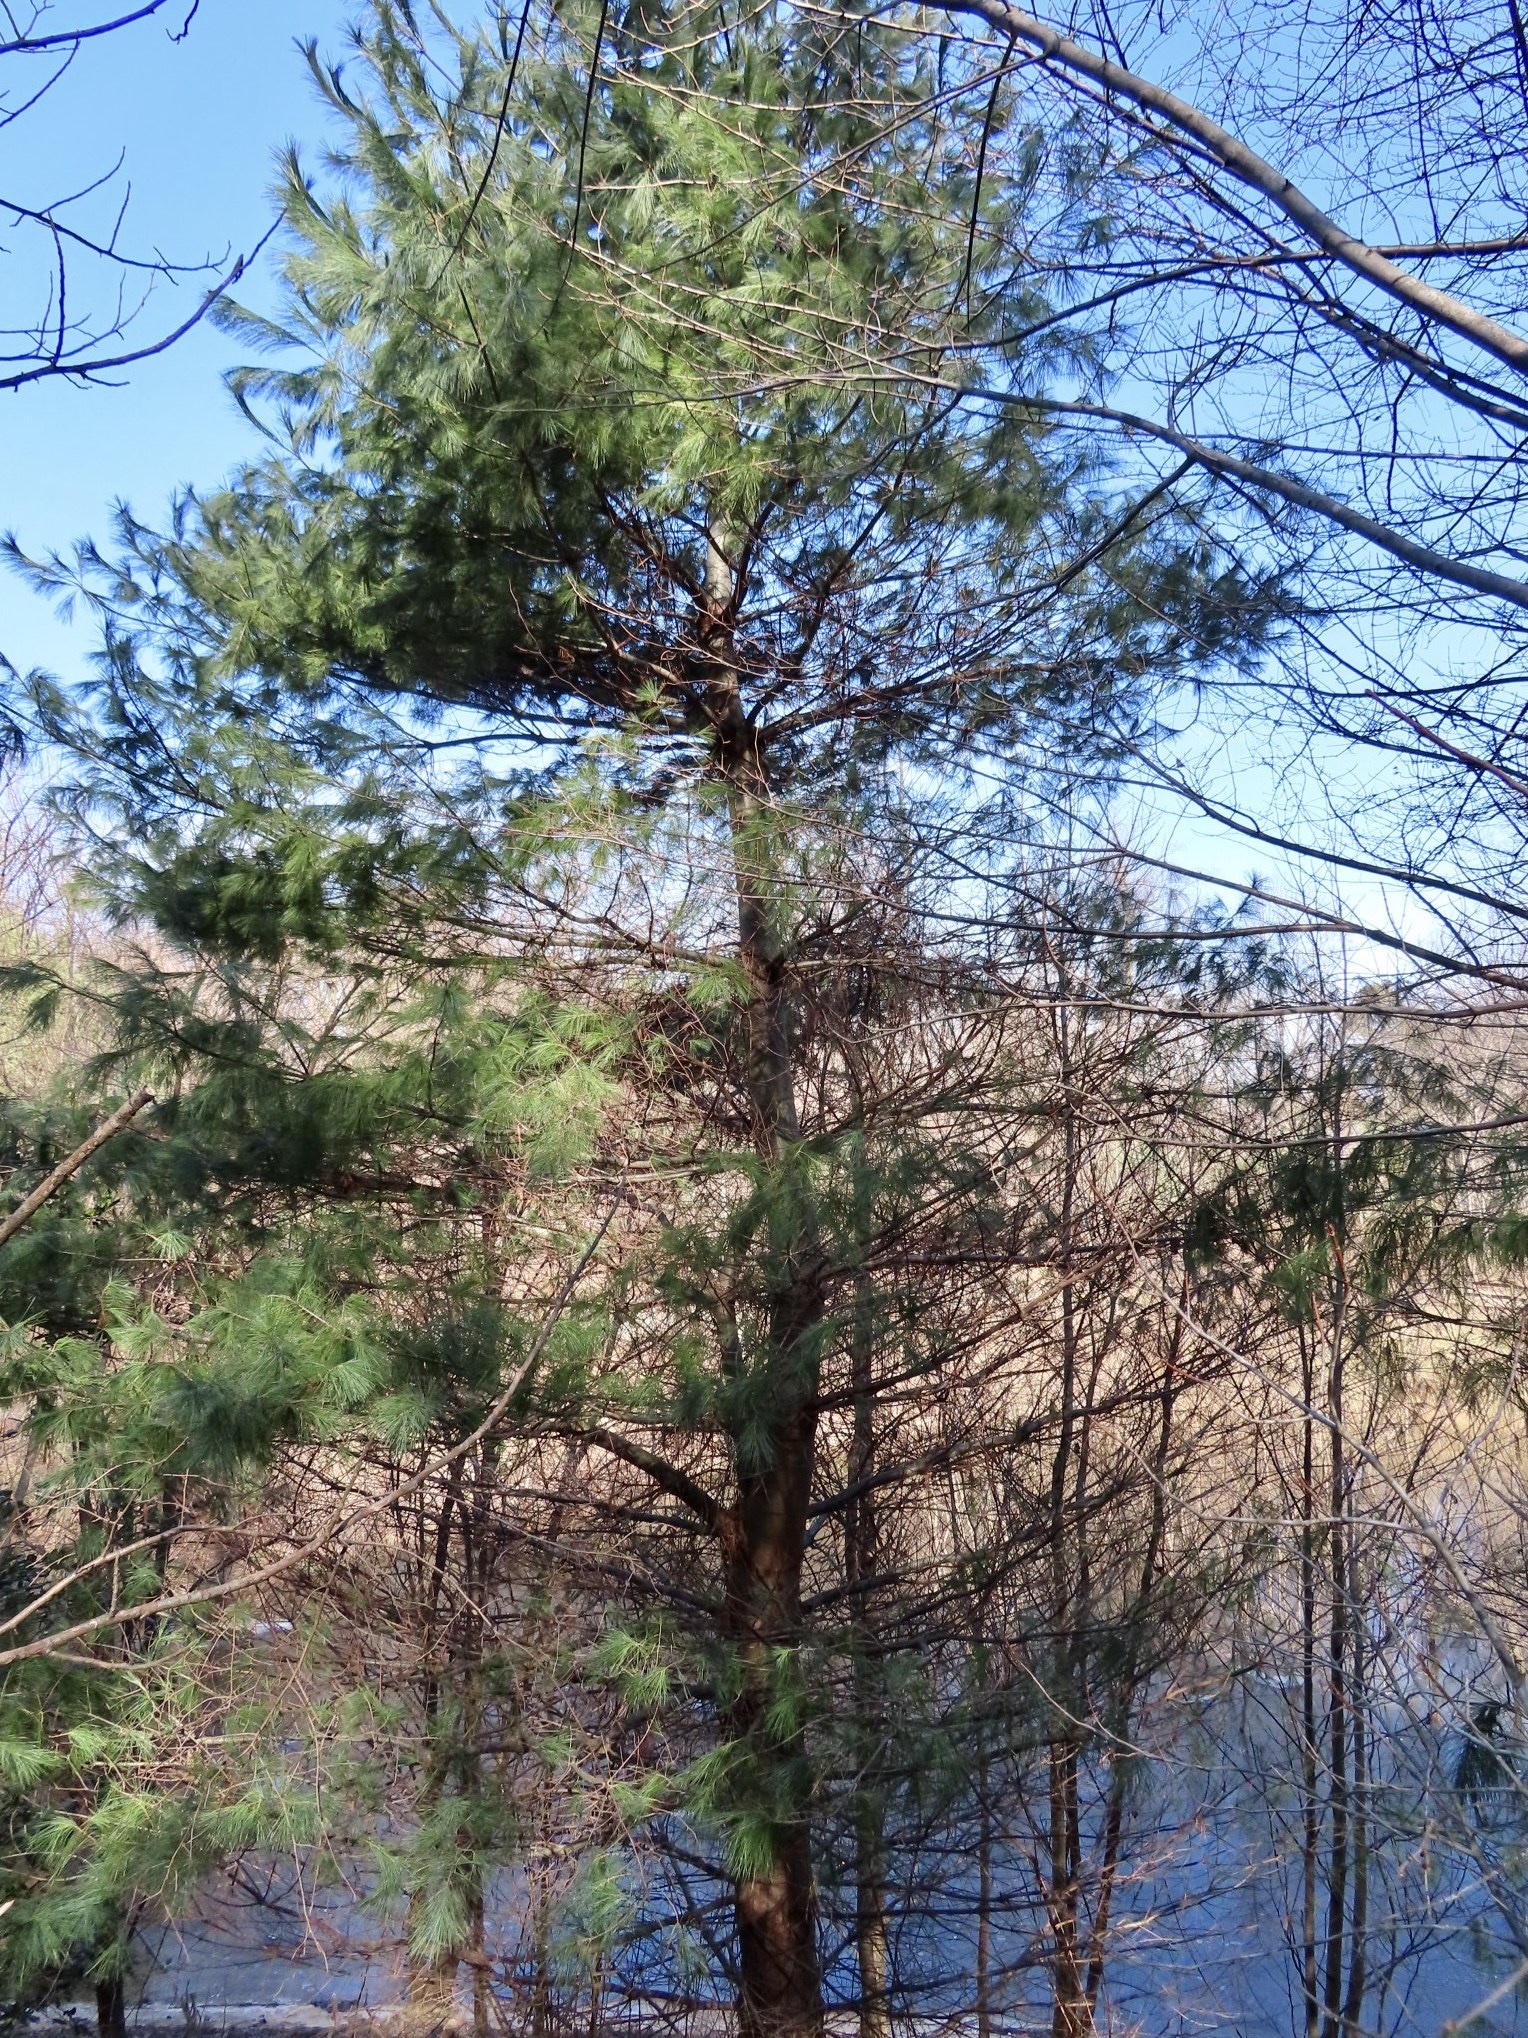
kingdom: Plantae
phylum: Tracheophyta
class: Pinopsida
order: Pinales
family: Pinaceae
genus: Pinus
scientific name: Pinus strobus
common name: Weymouth pine
